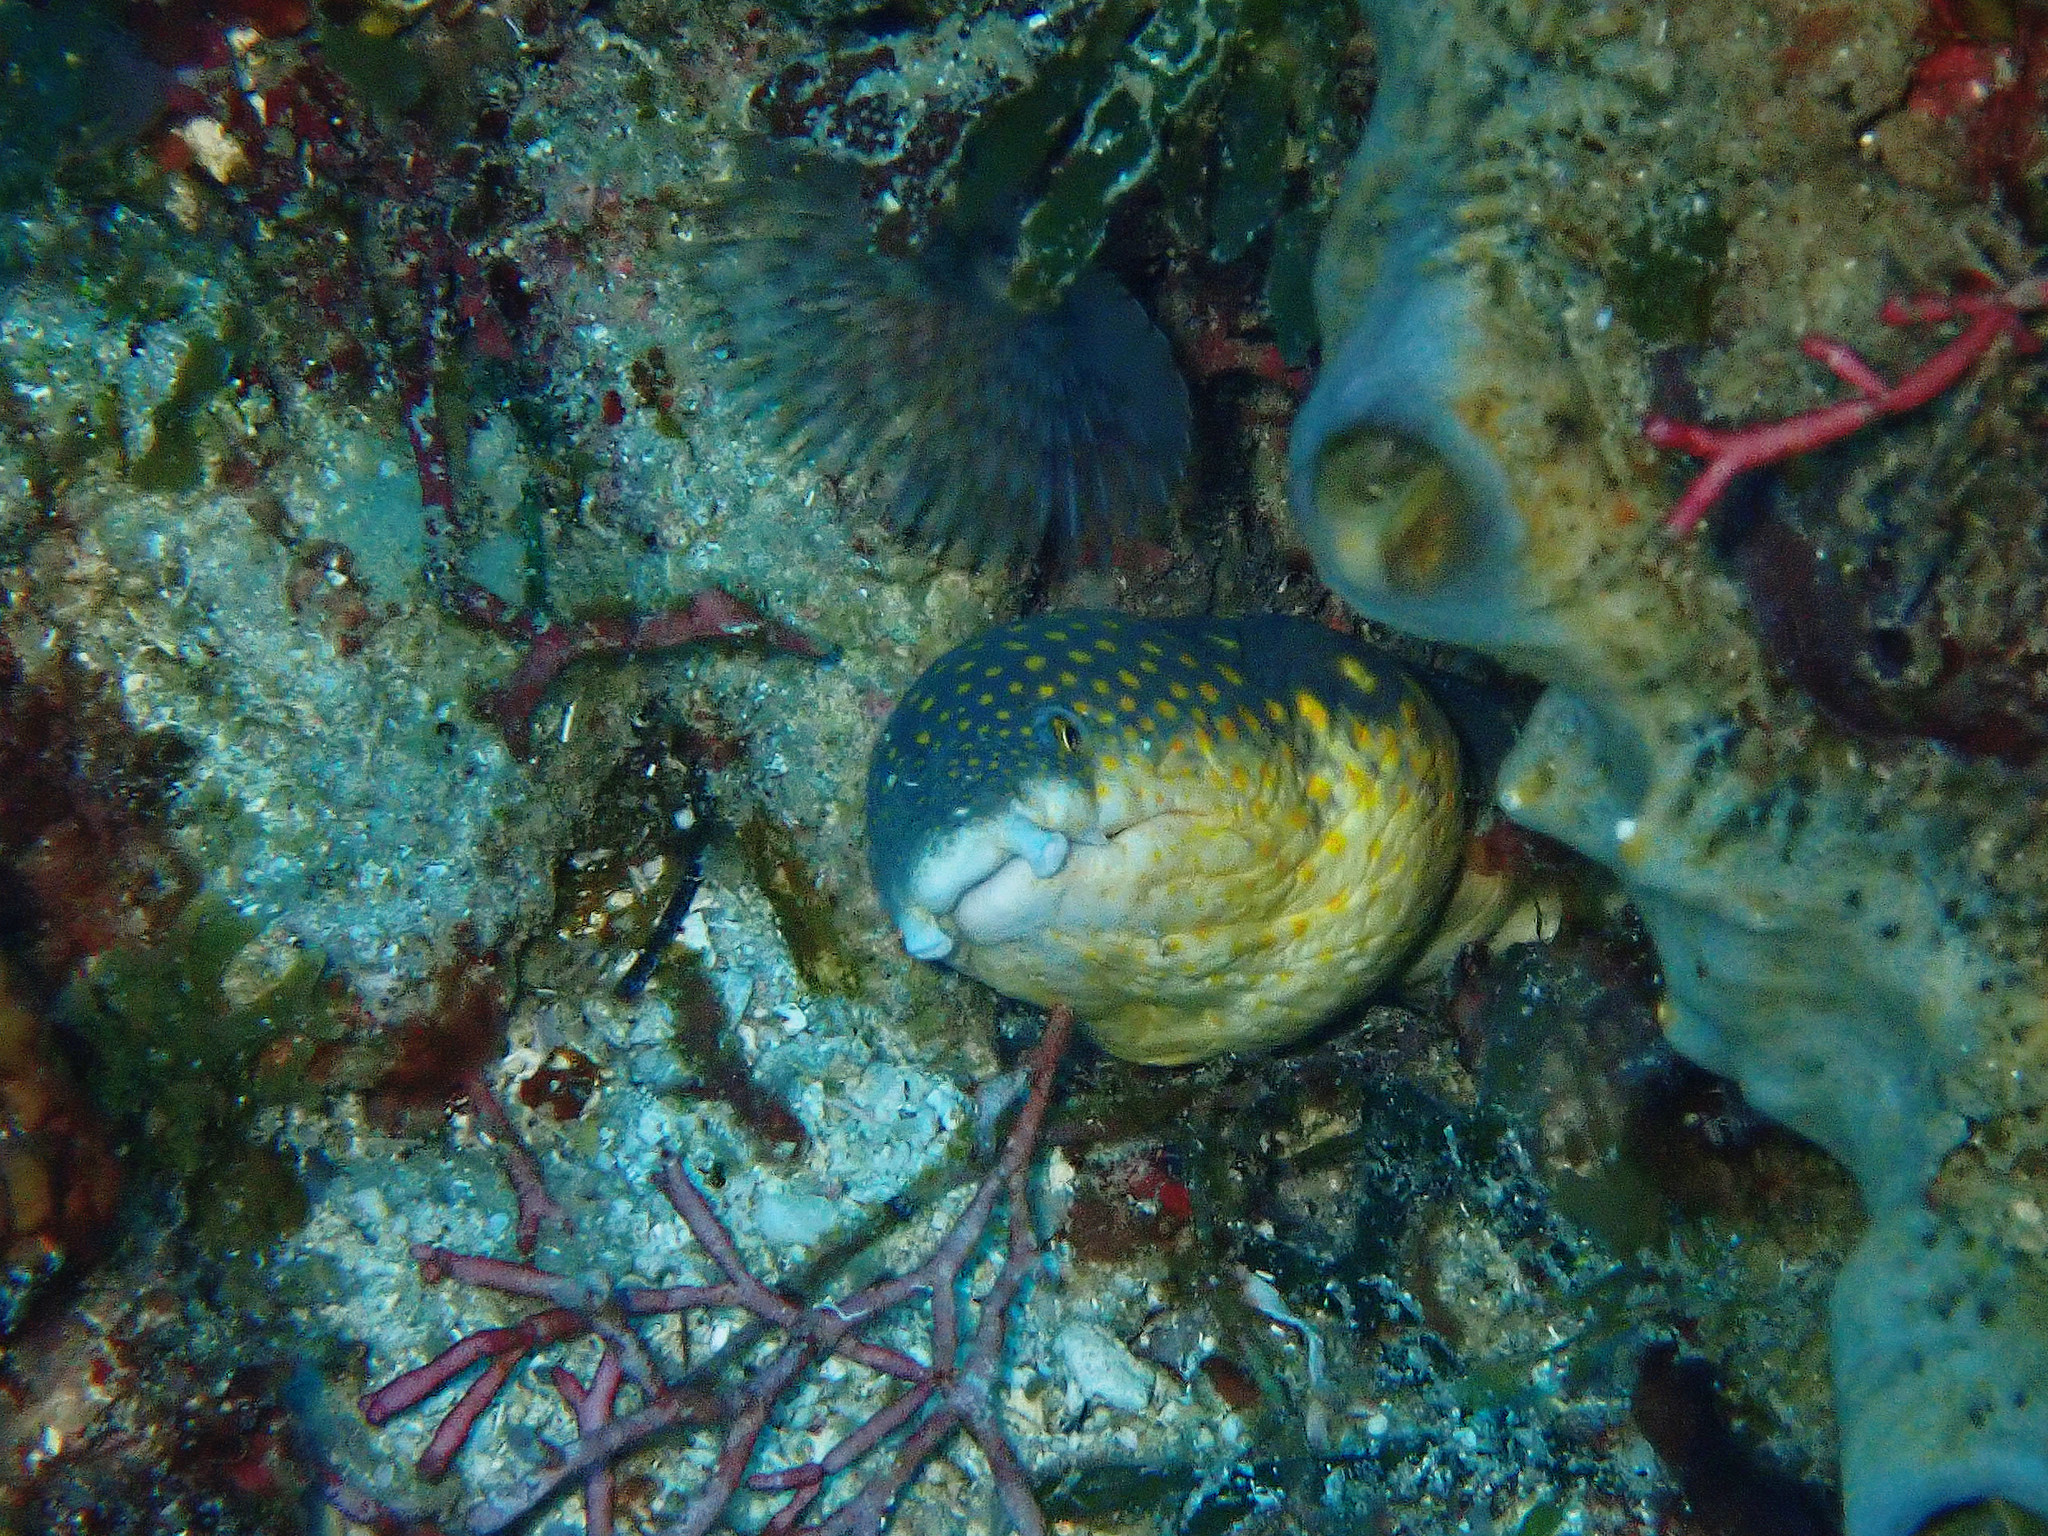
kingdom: Animalia
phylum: Chordata
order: Anguilliformes
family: Ophichthidae
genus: Myrichthys
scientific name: Myrichthys breviceps
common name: Sharptail eel
